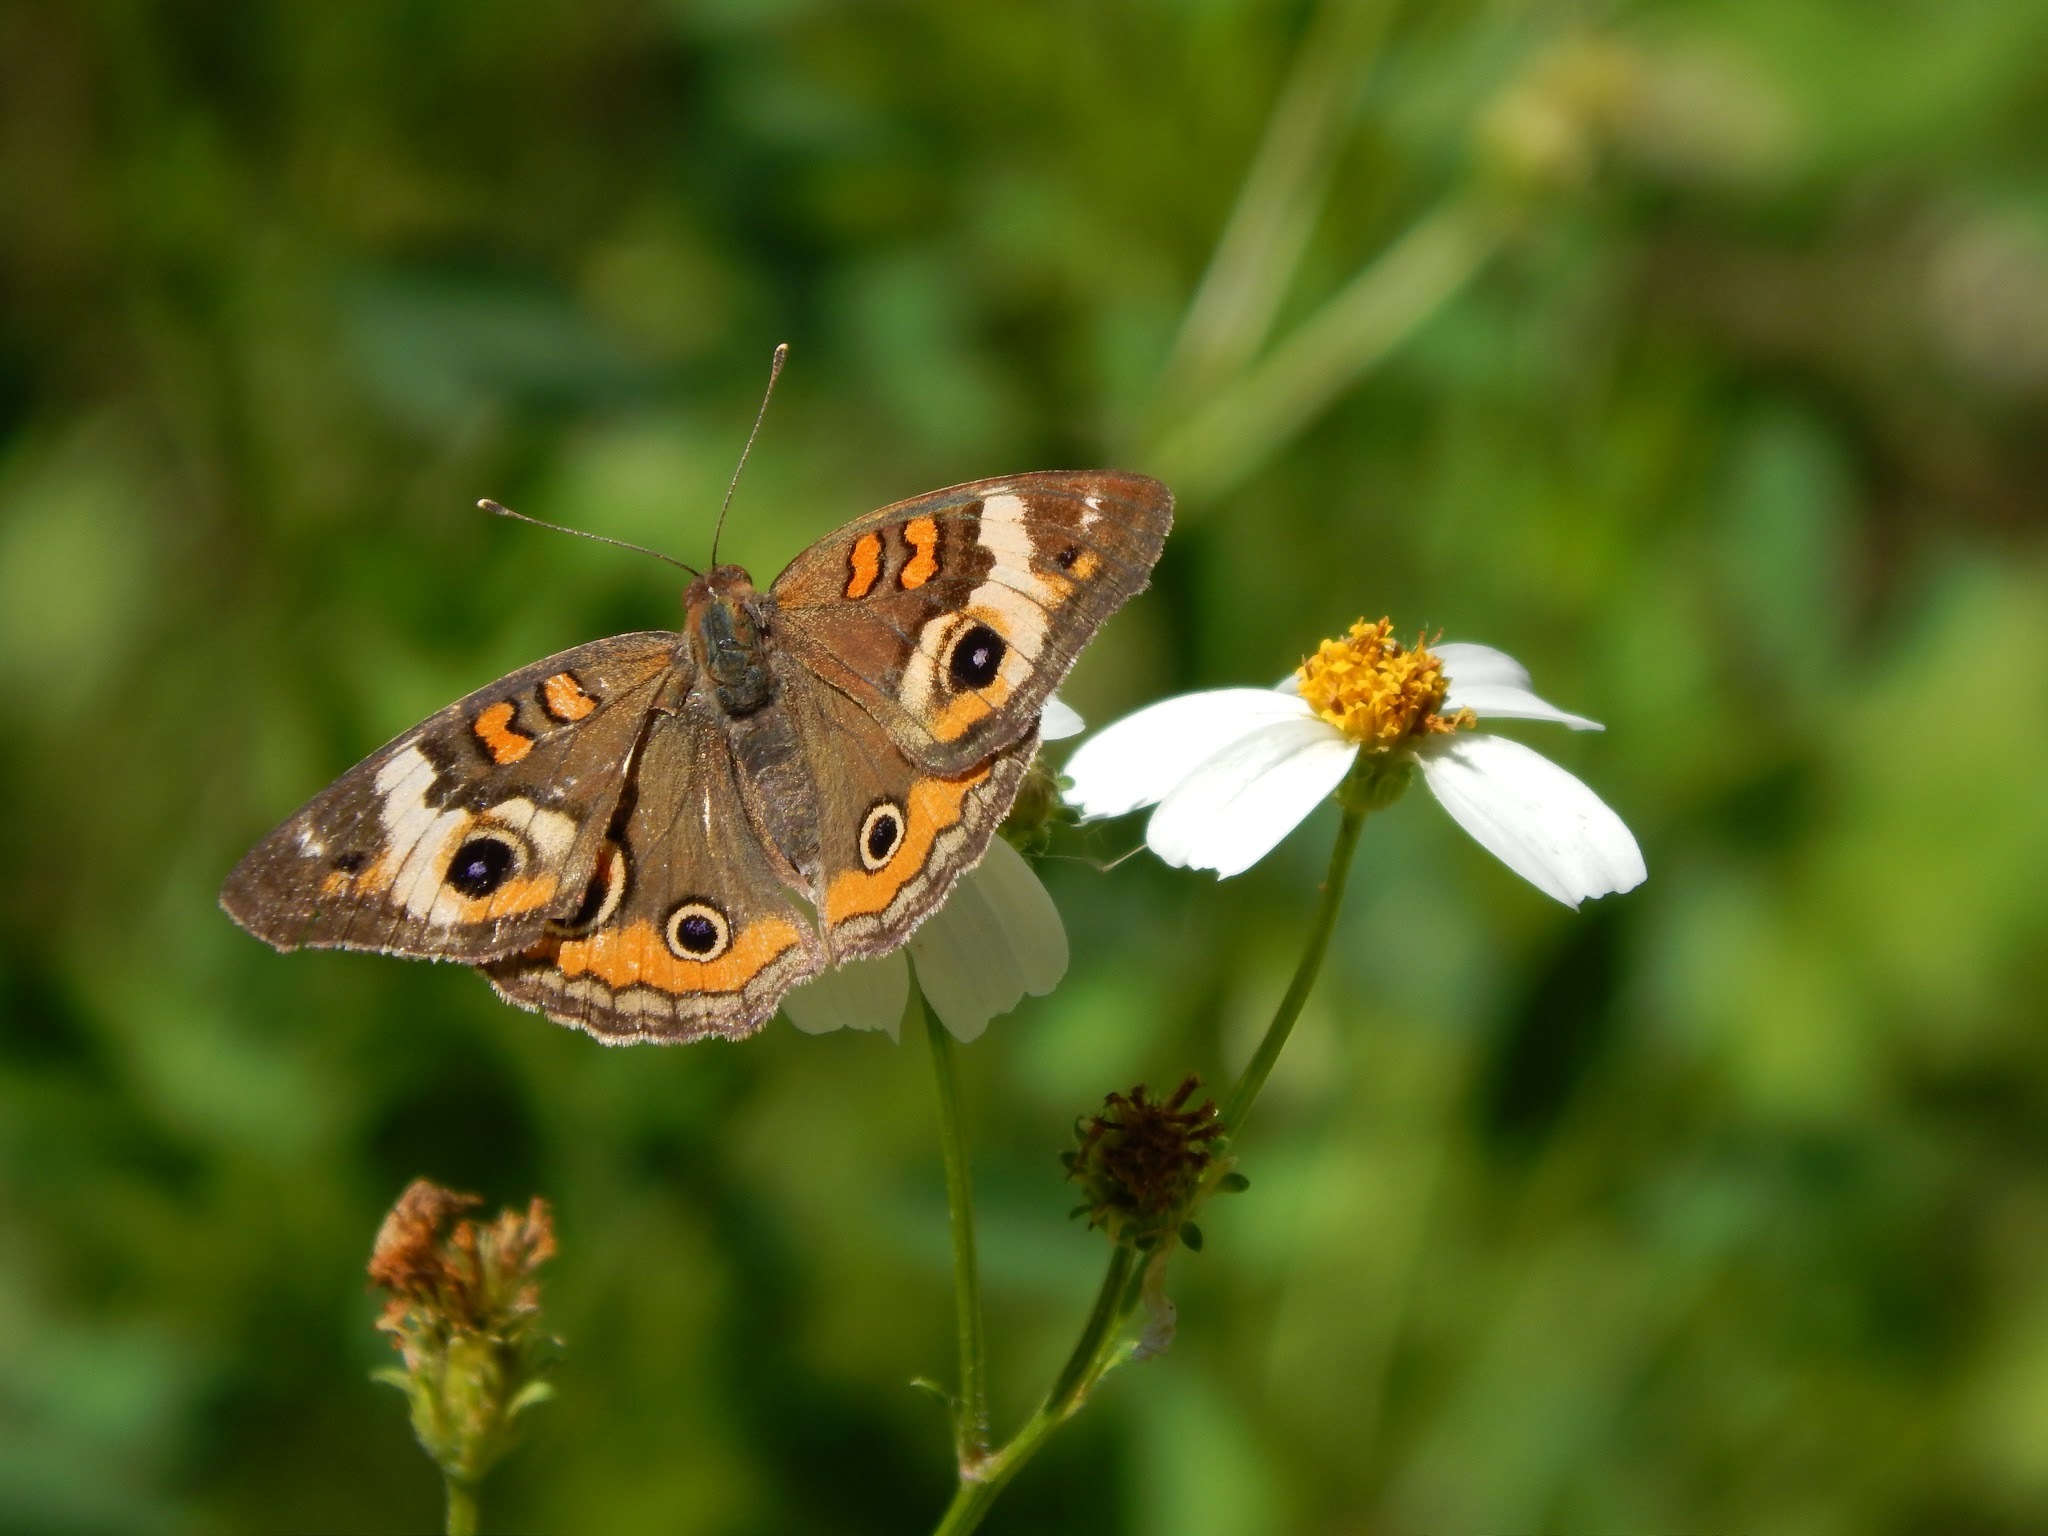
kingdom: Animalia
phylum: Arthropoda
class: Insecta
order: Lepidoptera
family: Nymphalidae
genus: Junonia
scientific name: Junonia coenia
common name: Common buckeye
